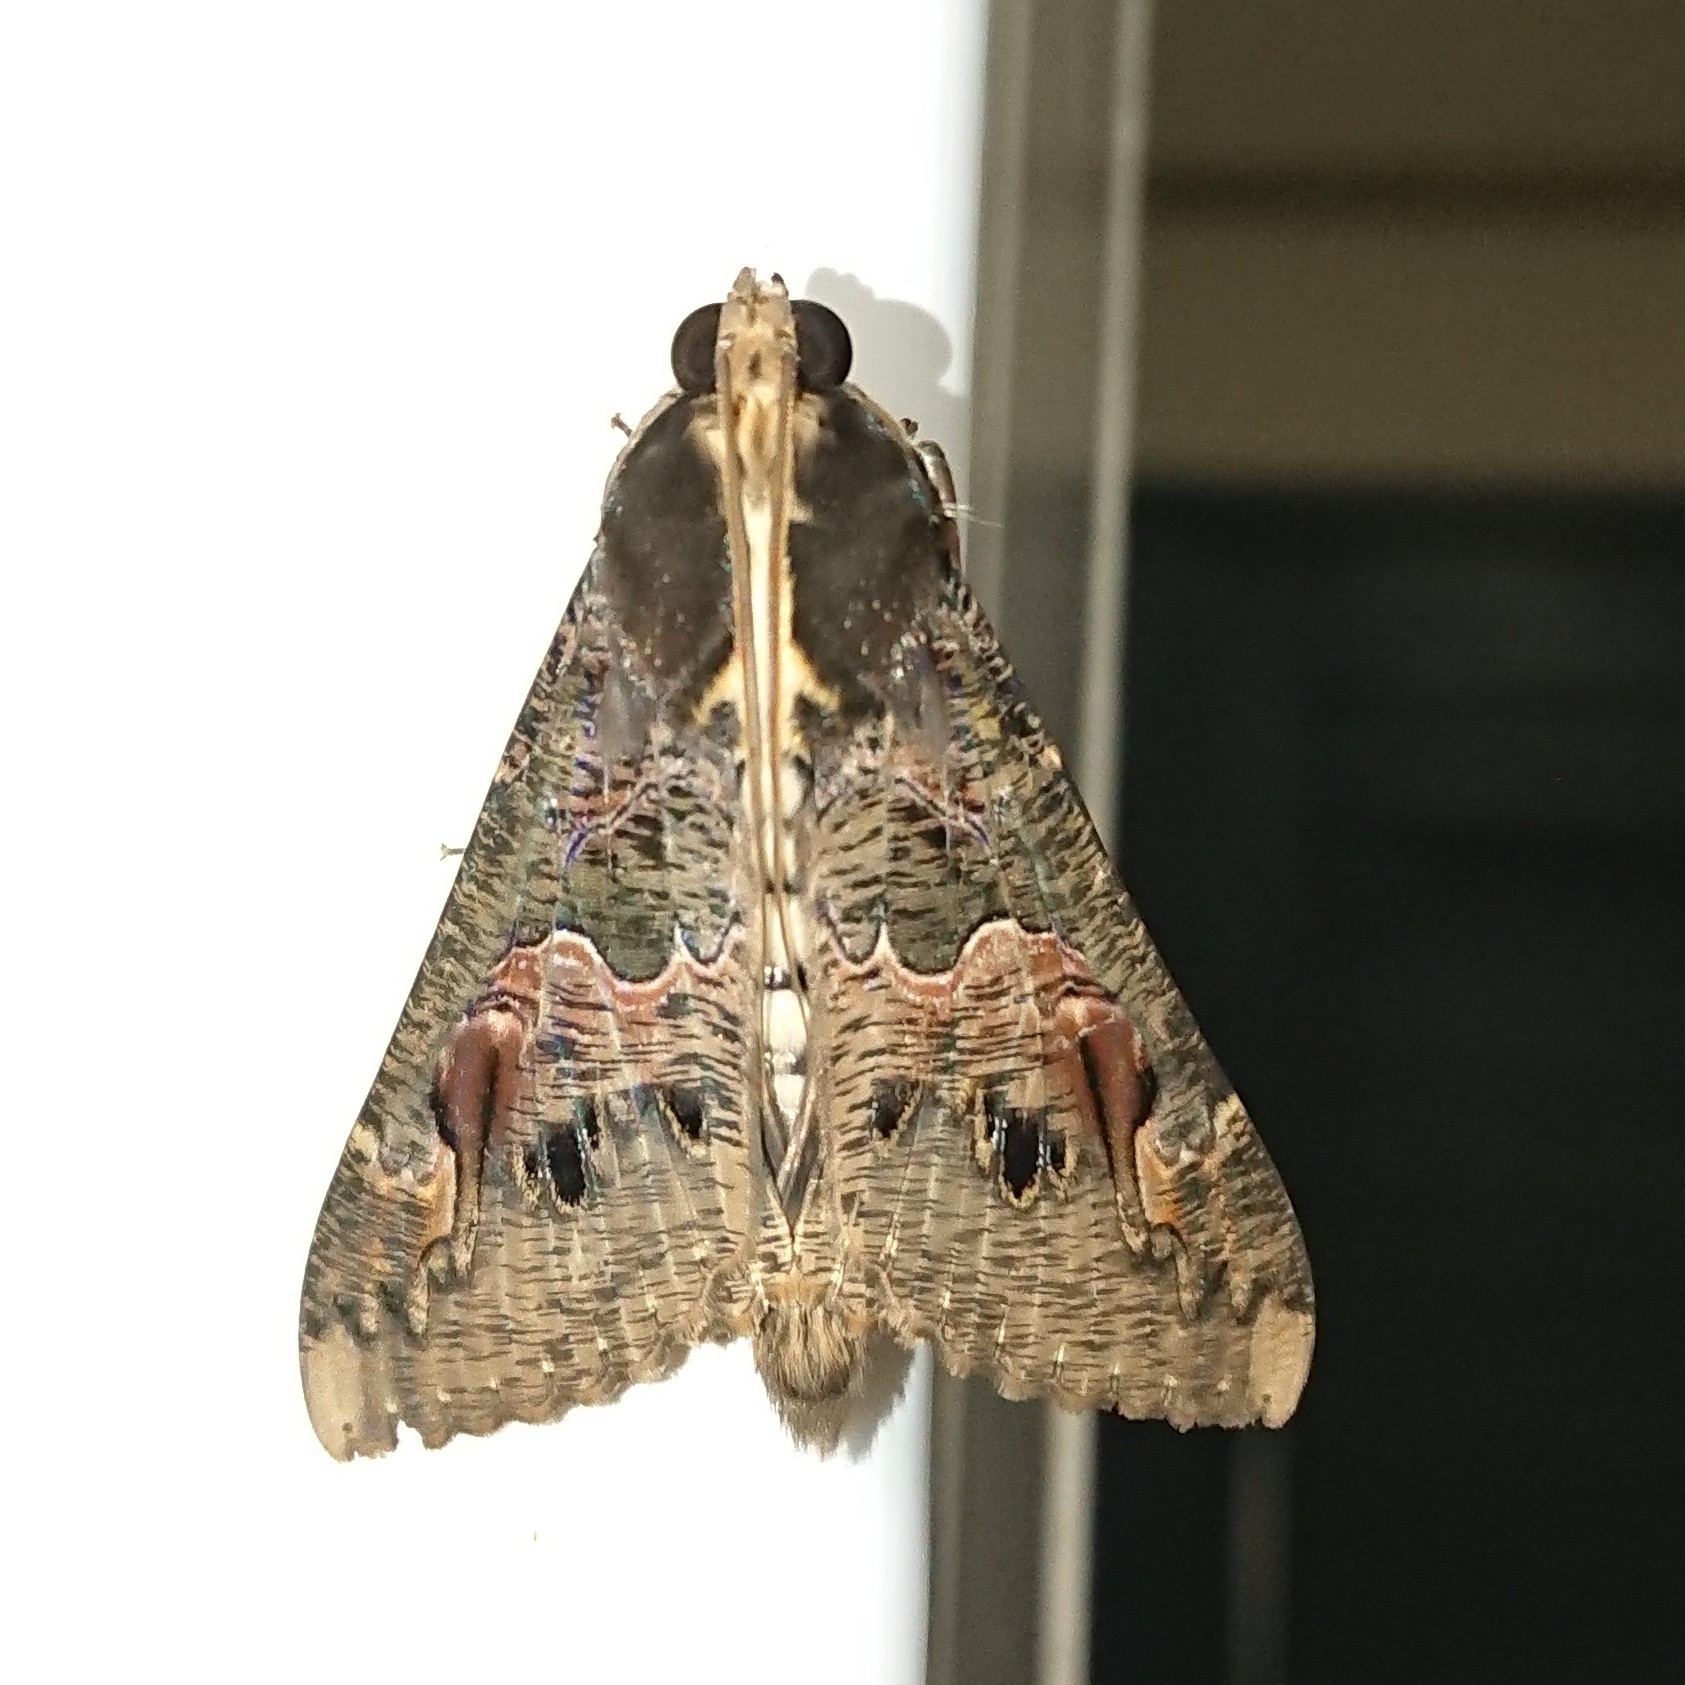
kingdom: Animalia
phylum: Arthropoda
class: Insecta
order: Lepidoptera
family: Erebidae
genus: Sphingomorpha
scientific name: Sphingomorpha chlorea
